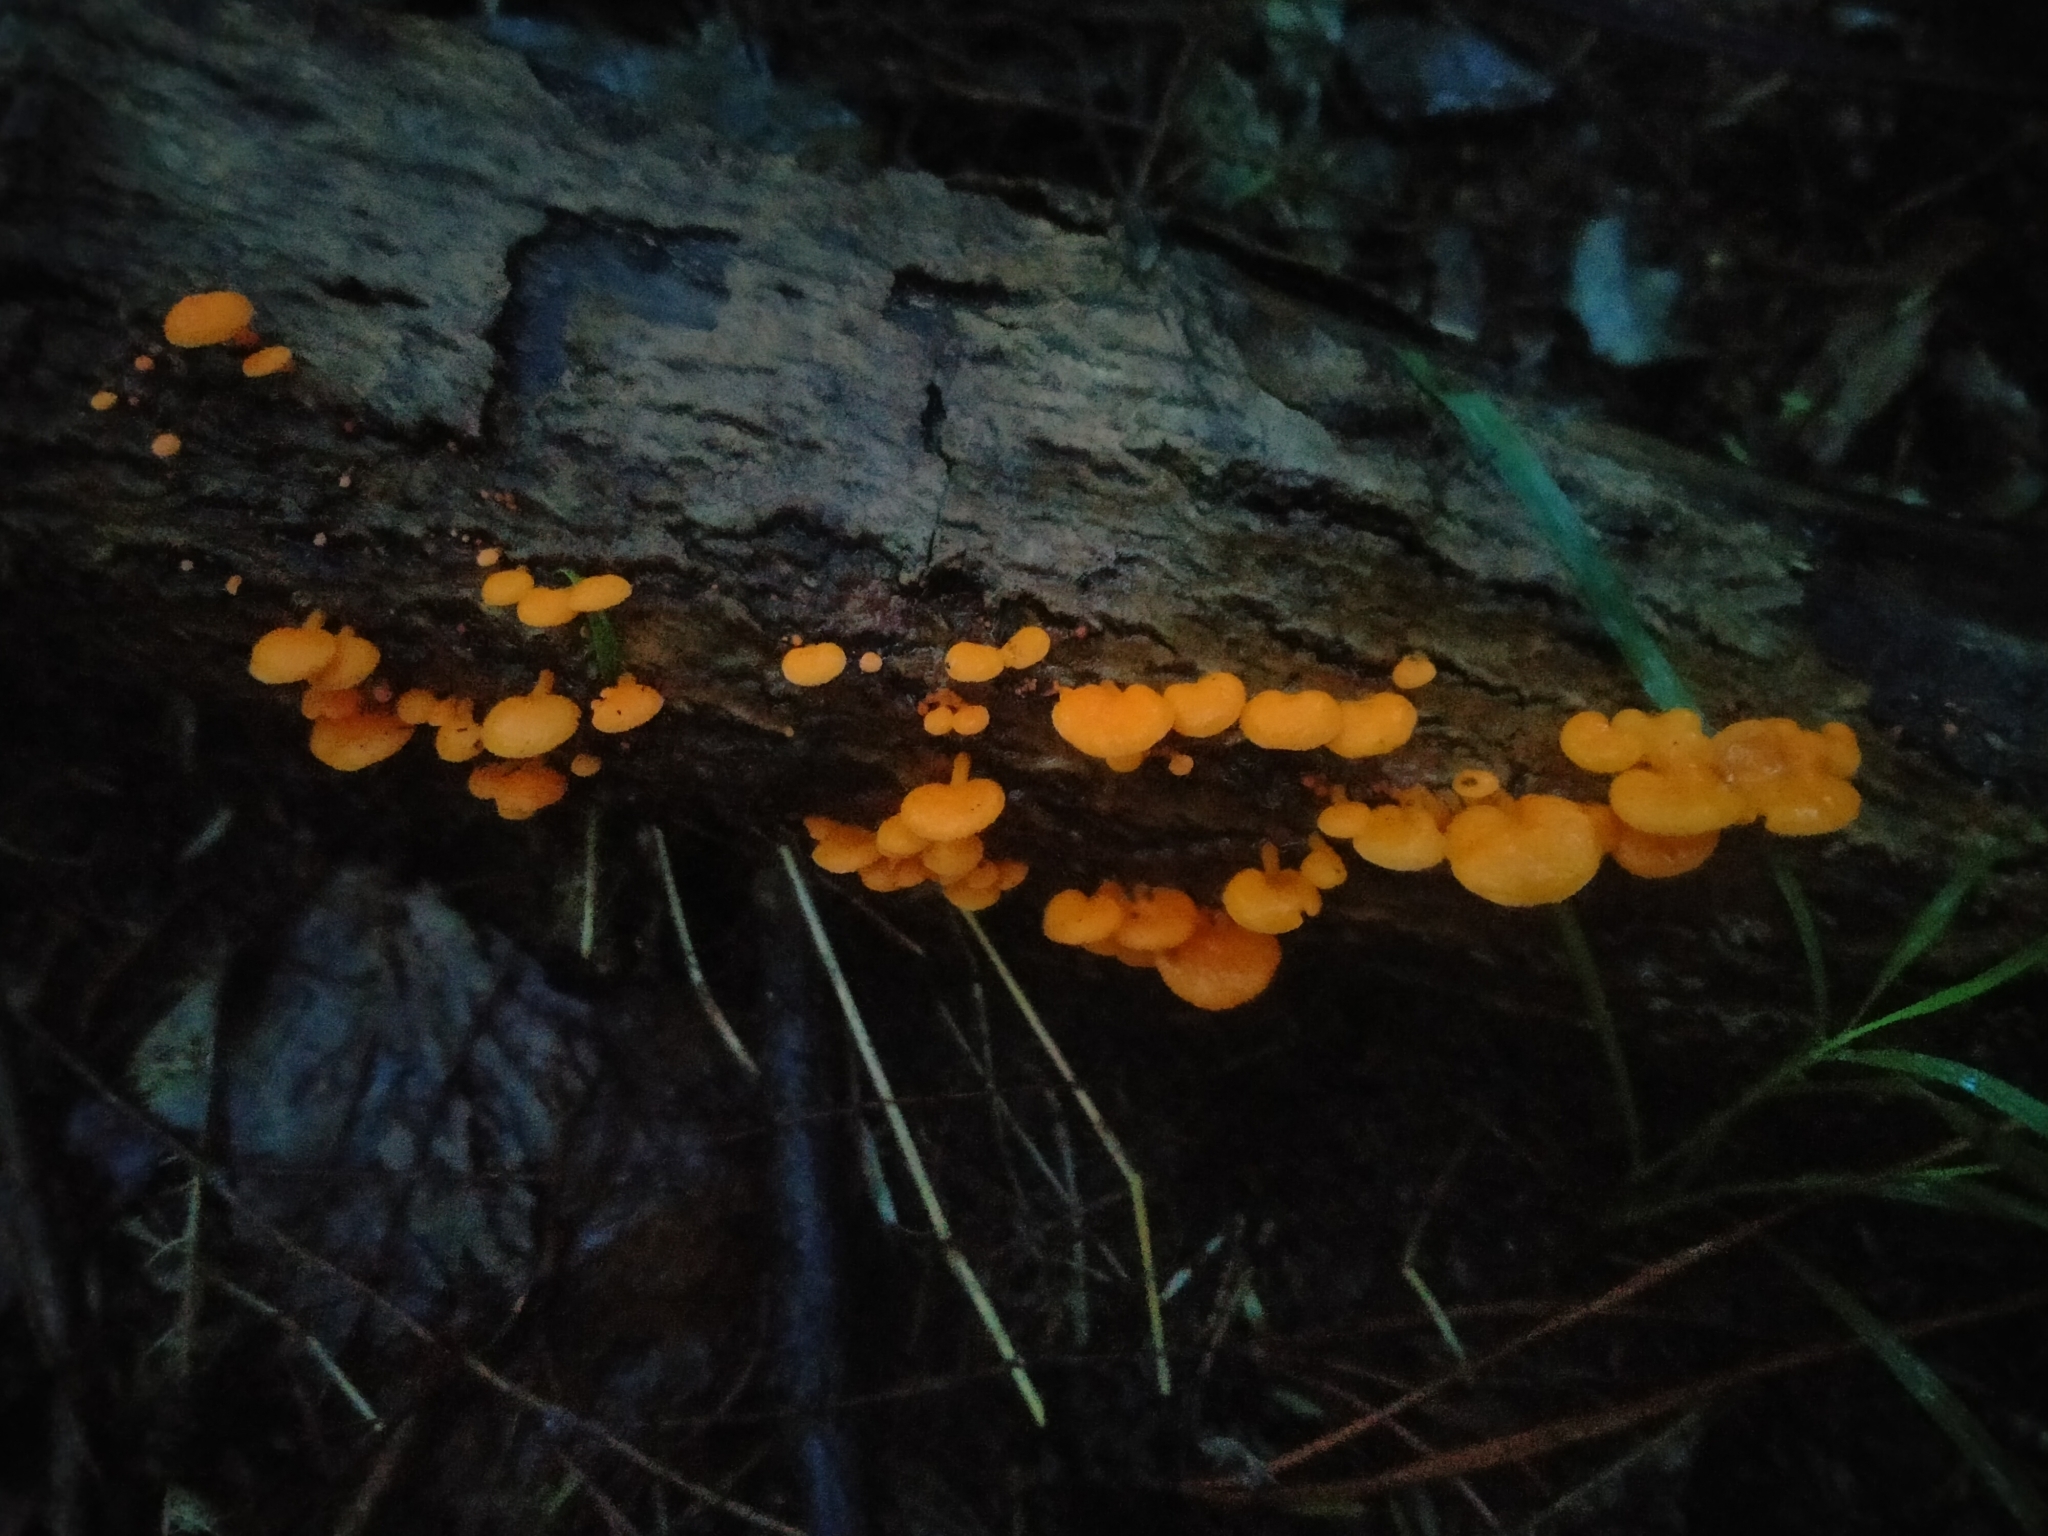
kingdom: Fungi
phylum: Basidiomycota
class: Agaricomycetes
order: Agaricales
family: Mycenaceae
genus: Favolaschia
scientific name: Favolaschia claudopus
